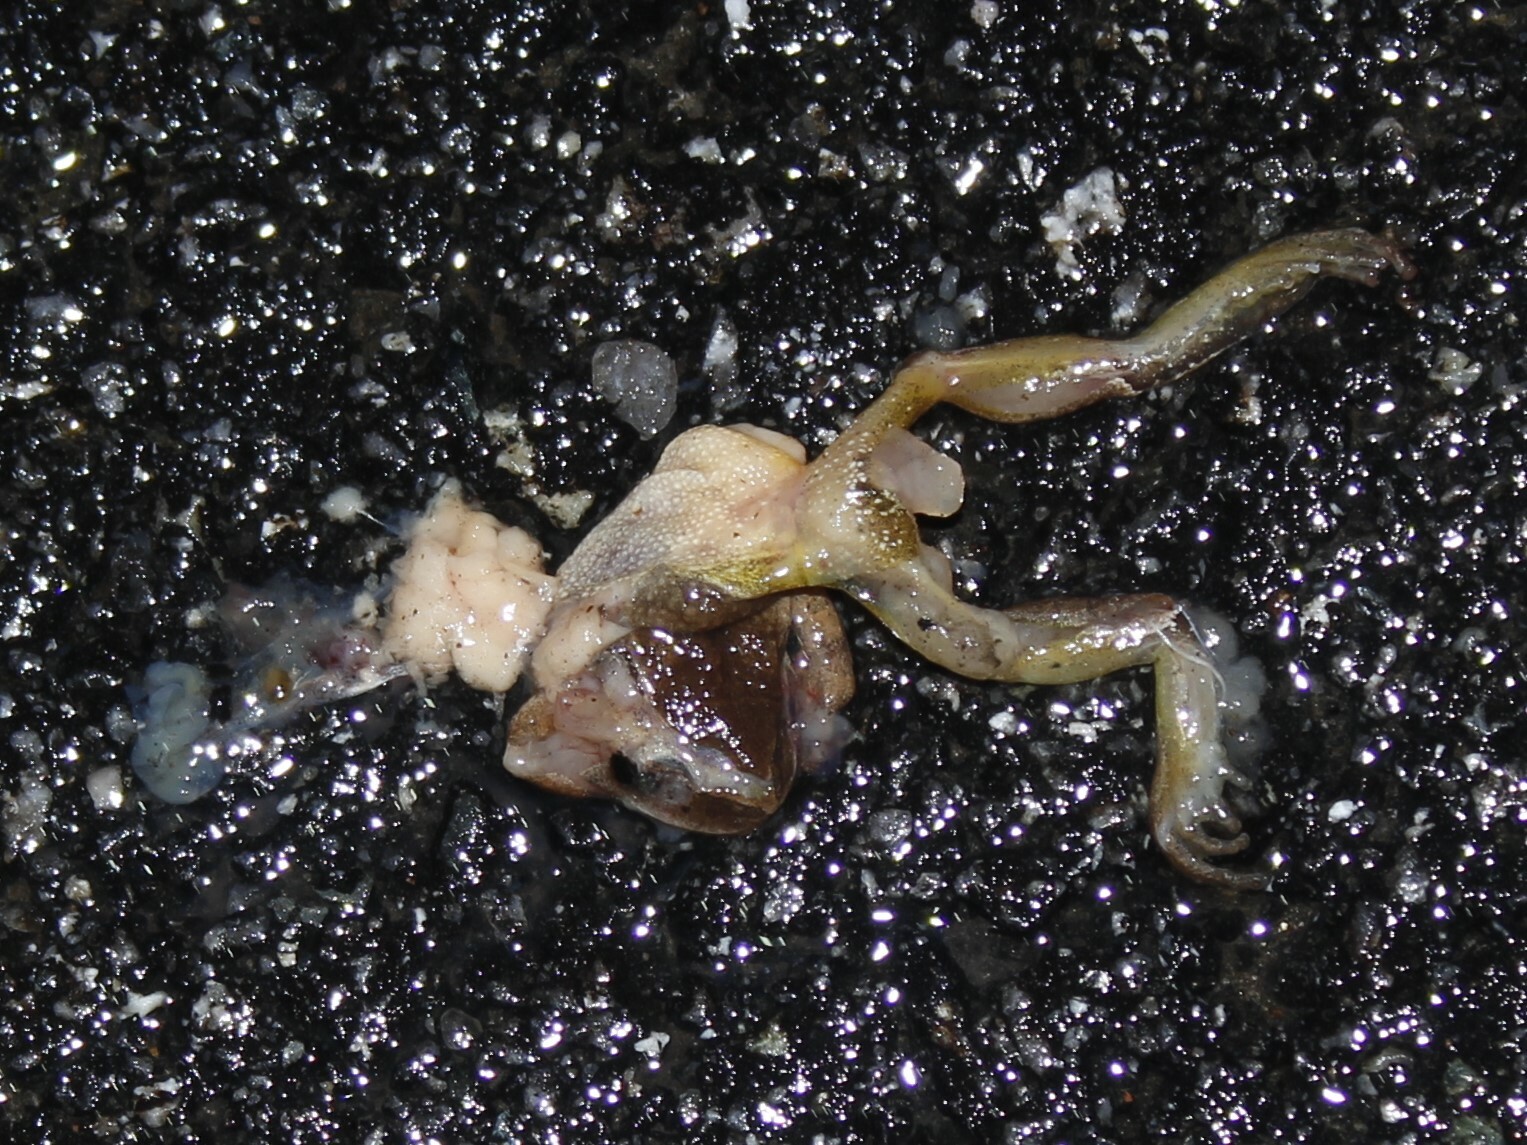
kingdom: Animalia
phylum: Chordata
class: Amphibia
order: Anura
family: Hylidae
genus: Pseudacris
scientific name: Pseudacris crucifer
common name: Spring peeper
